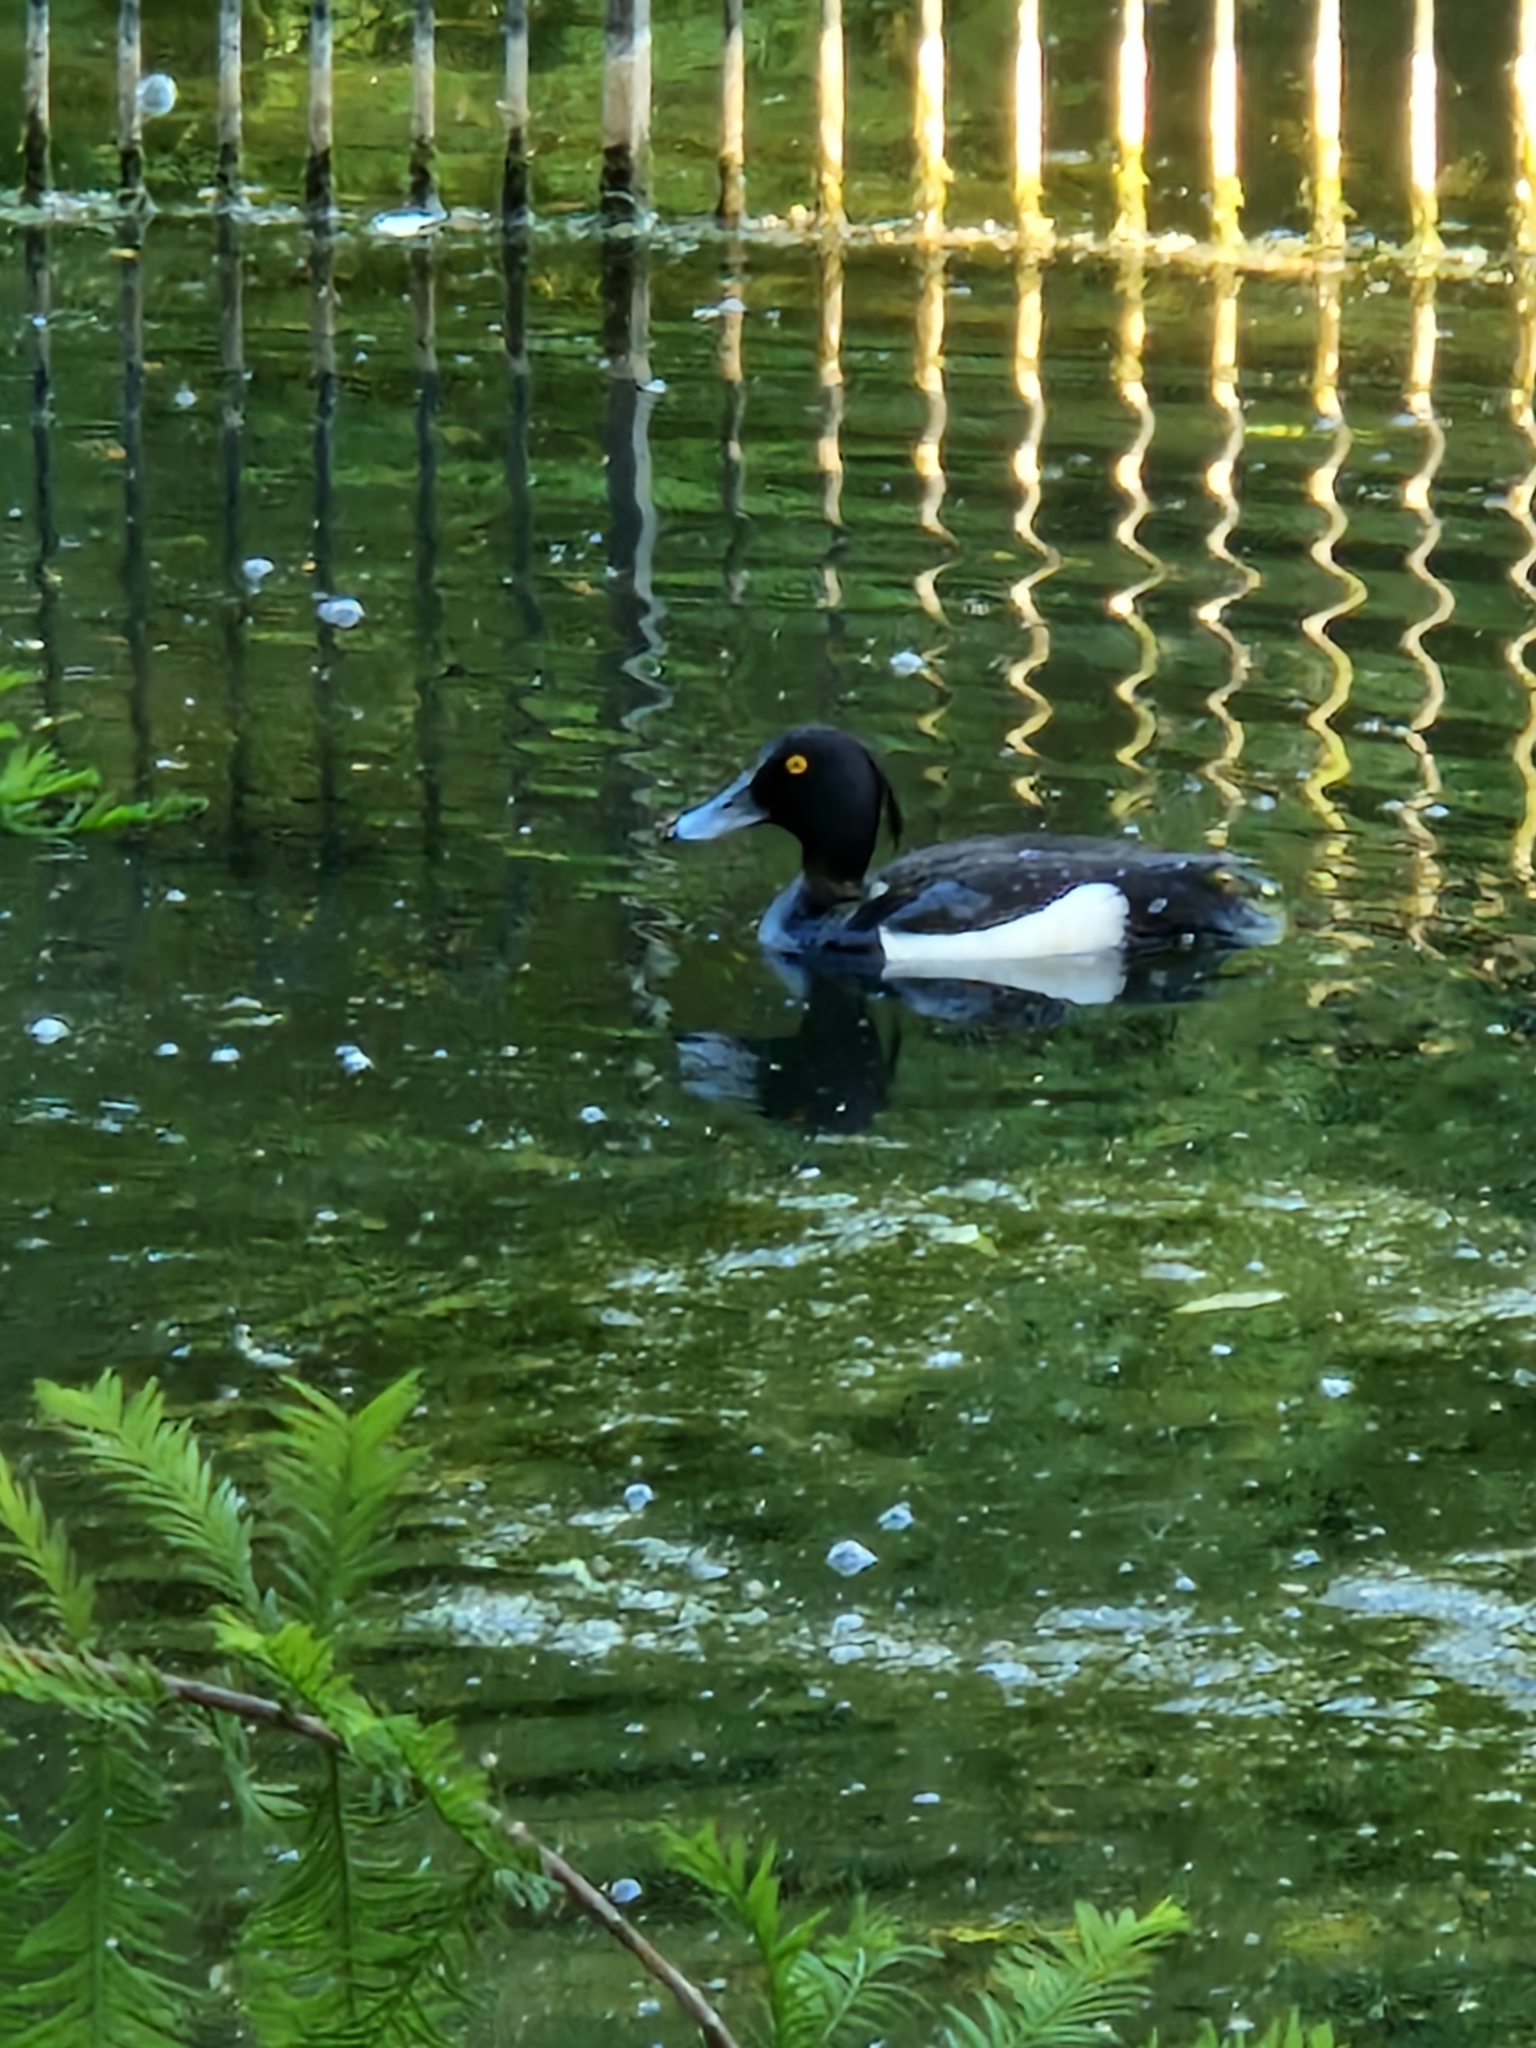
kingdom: Animalia
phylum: Chordata
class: Aves
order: Anseriformes
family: Anatidae
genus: Aythya
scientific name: Aythya fuligula
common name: Tufted duck
